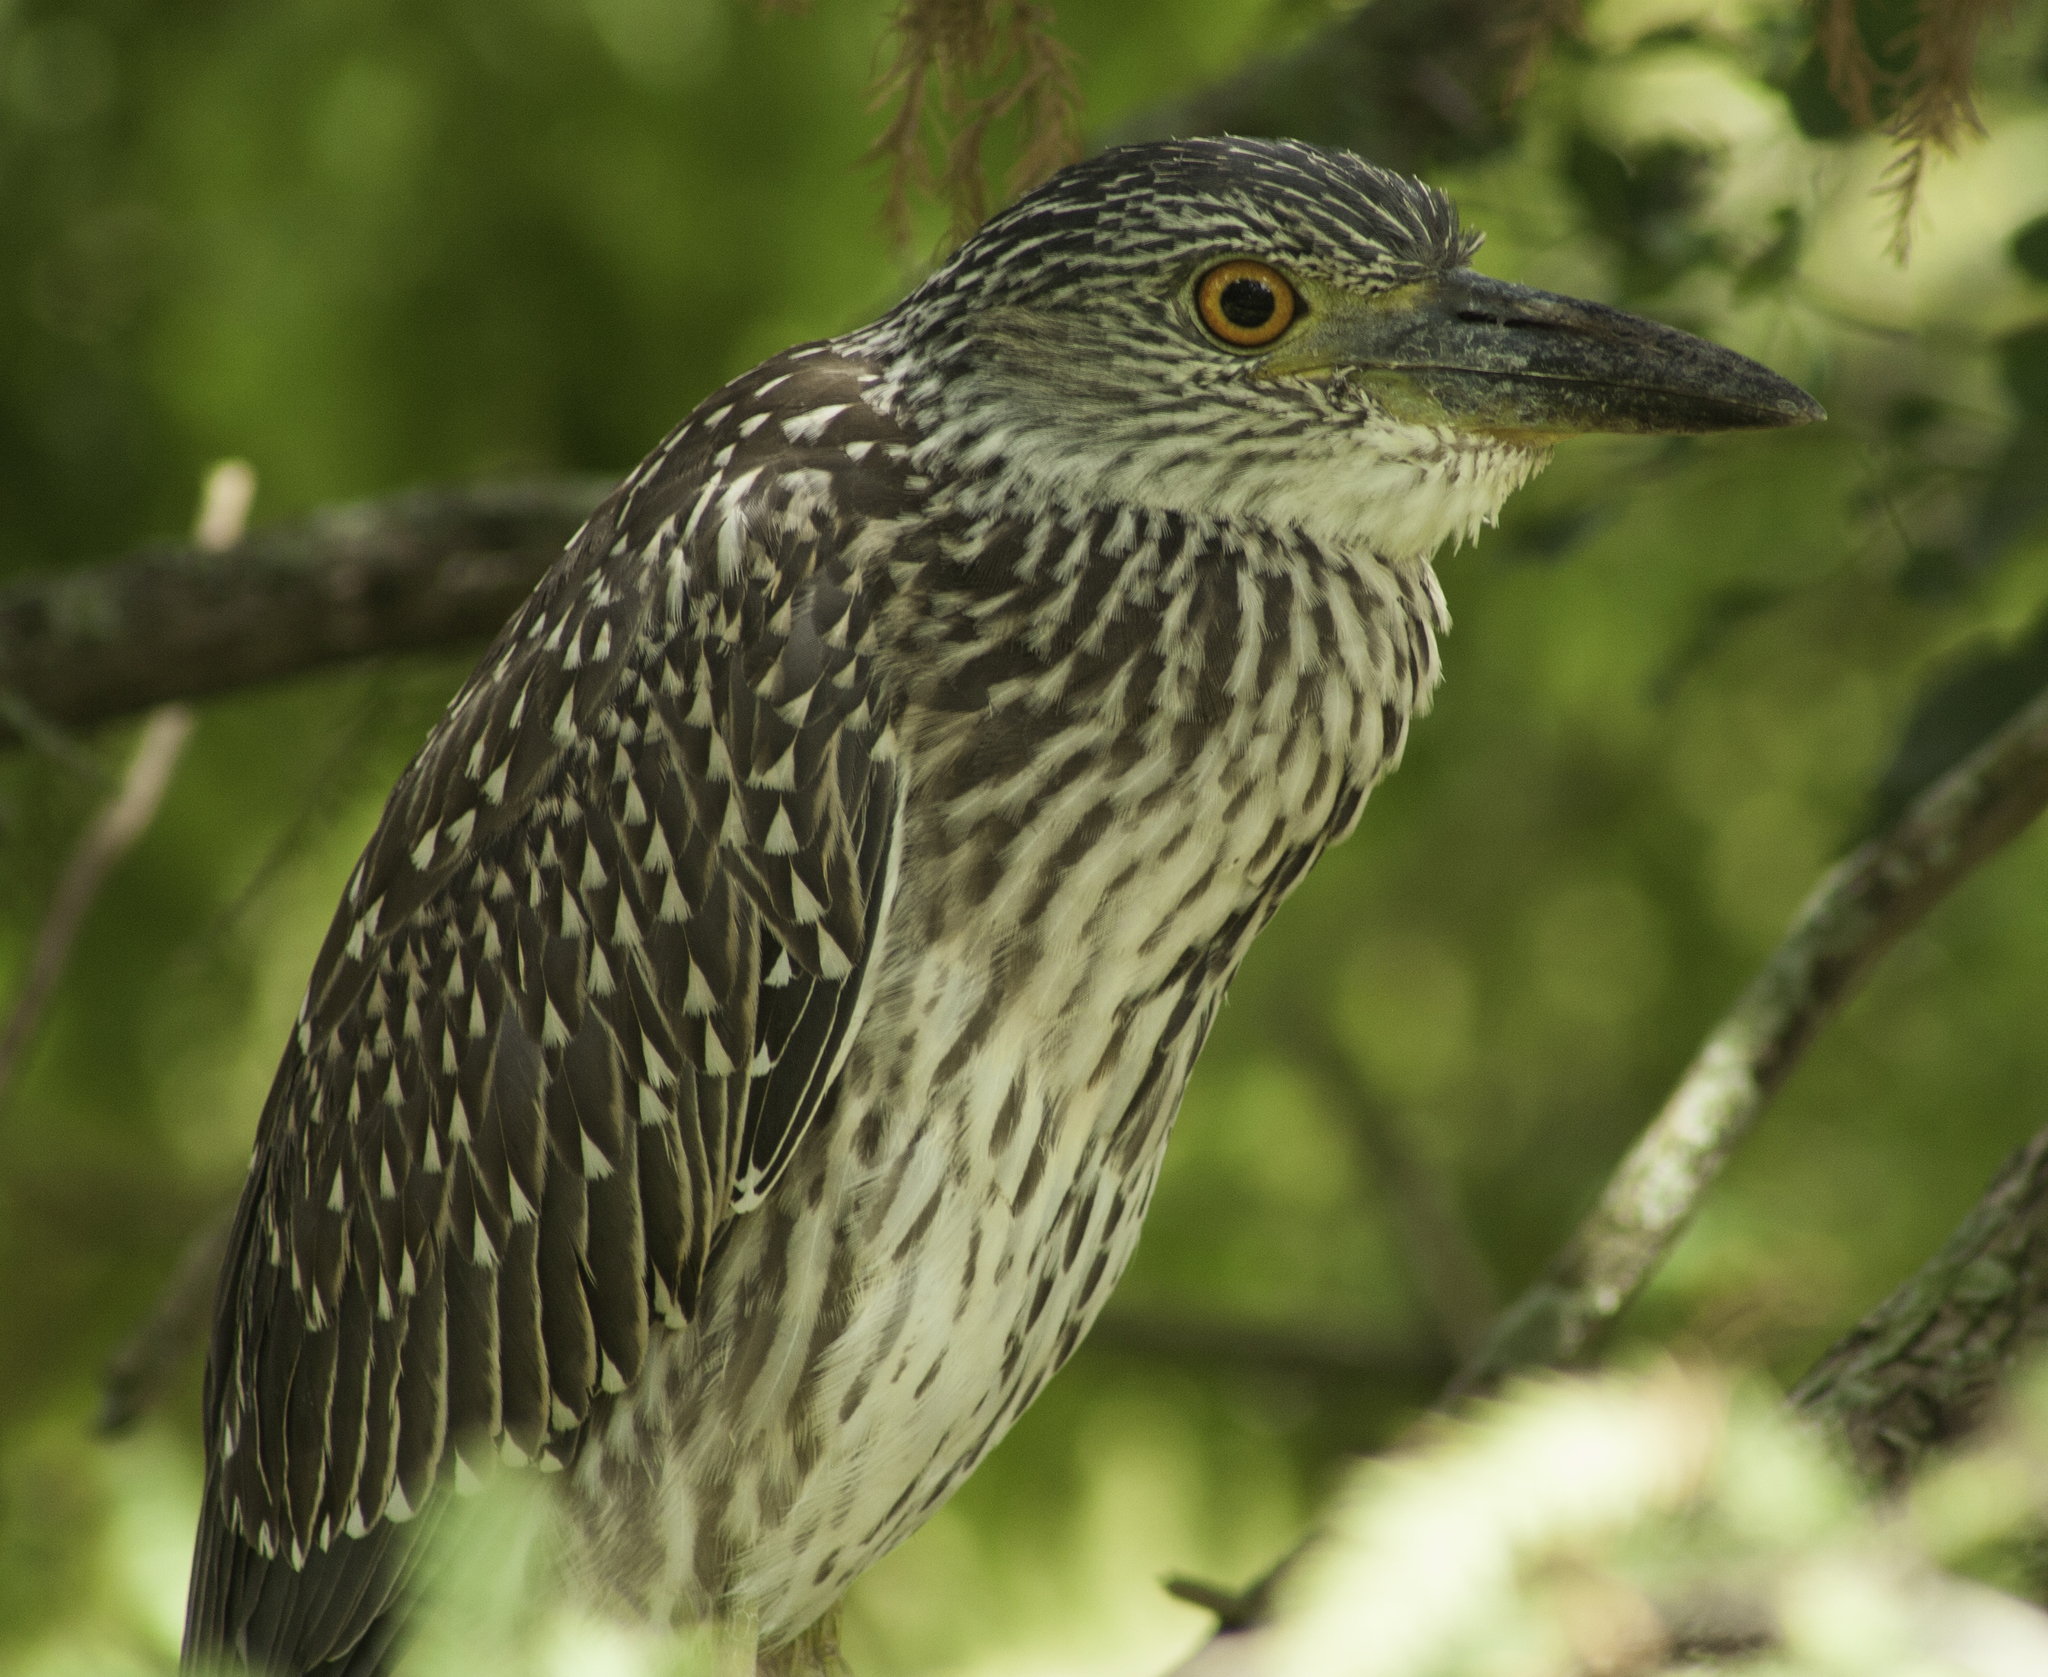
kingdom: Animalia
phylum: Chordata
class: Aves
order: Pelecaniformes
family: Ardeidae
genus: Nyctanassa
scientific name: Nyctanassa violacea
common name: Yellow-crowned night heron
